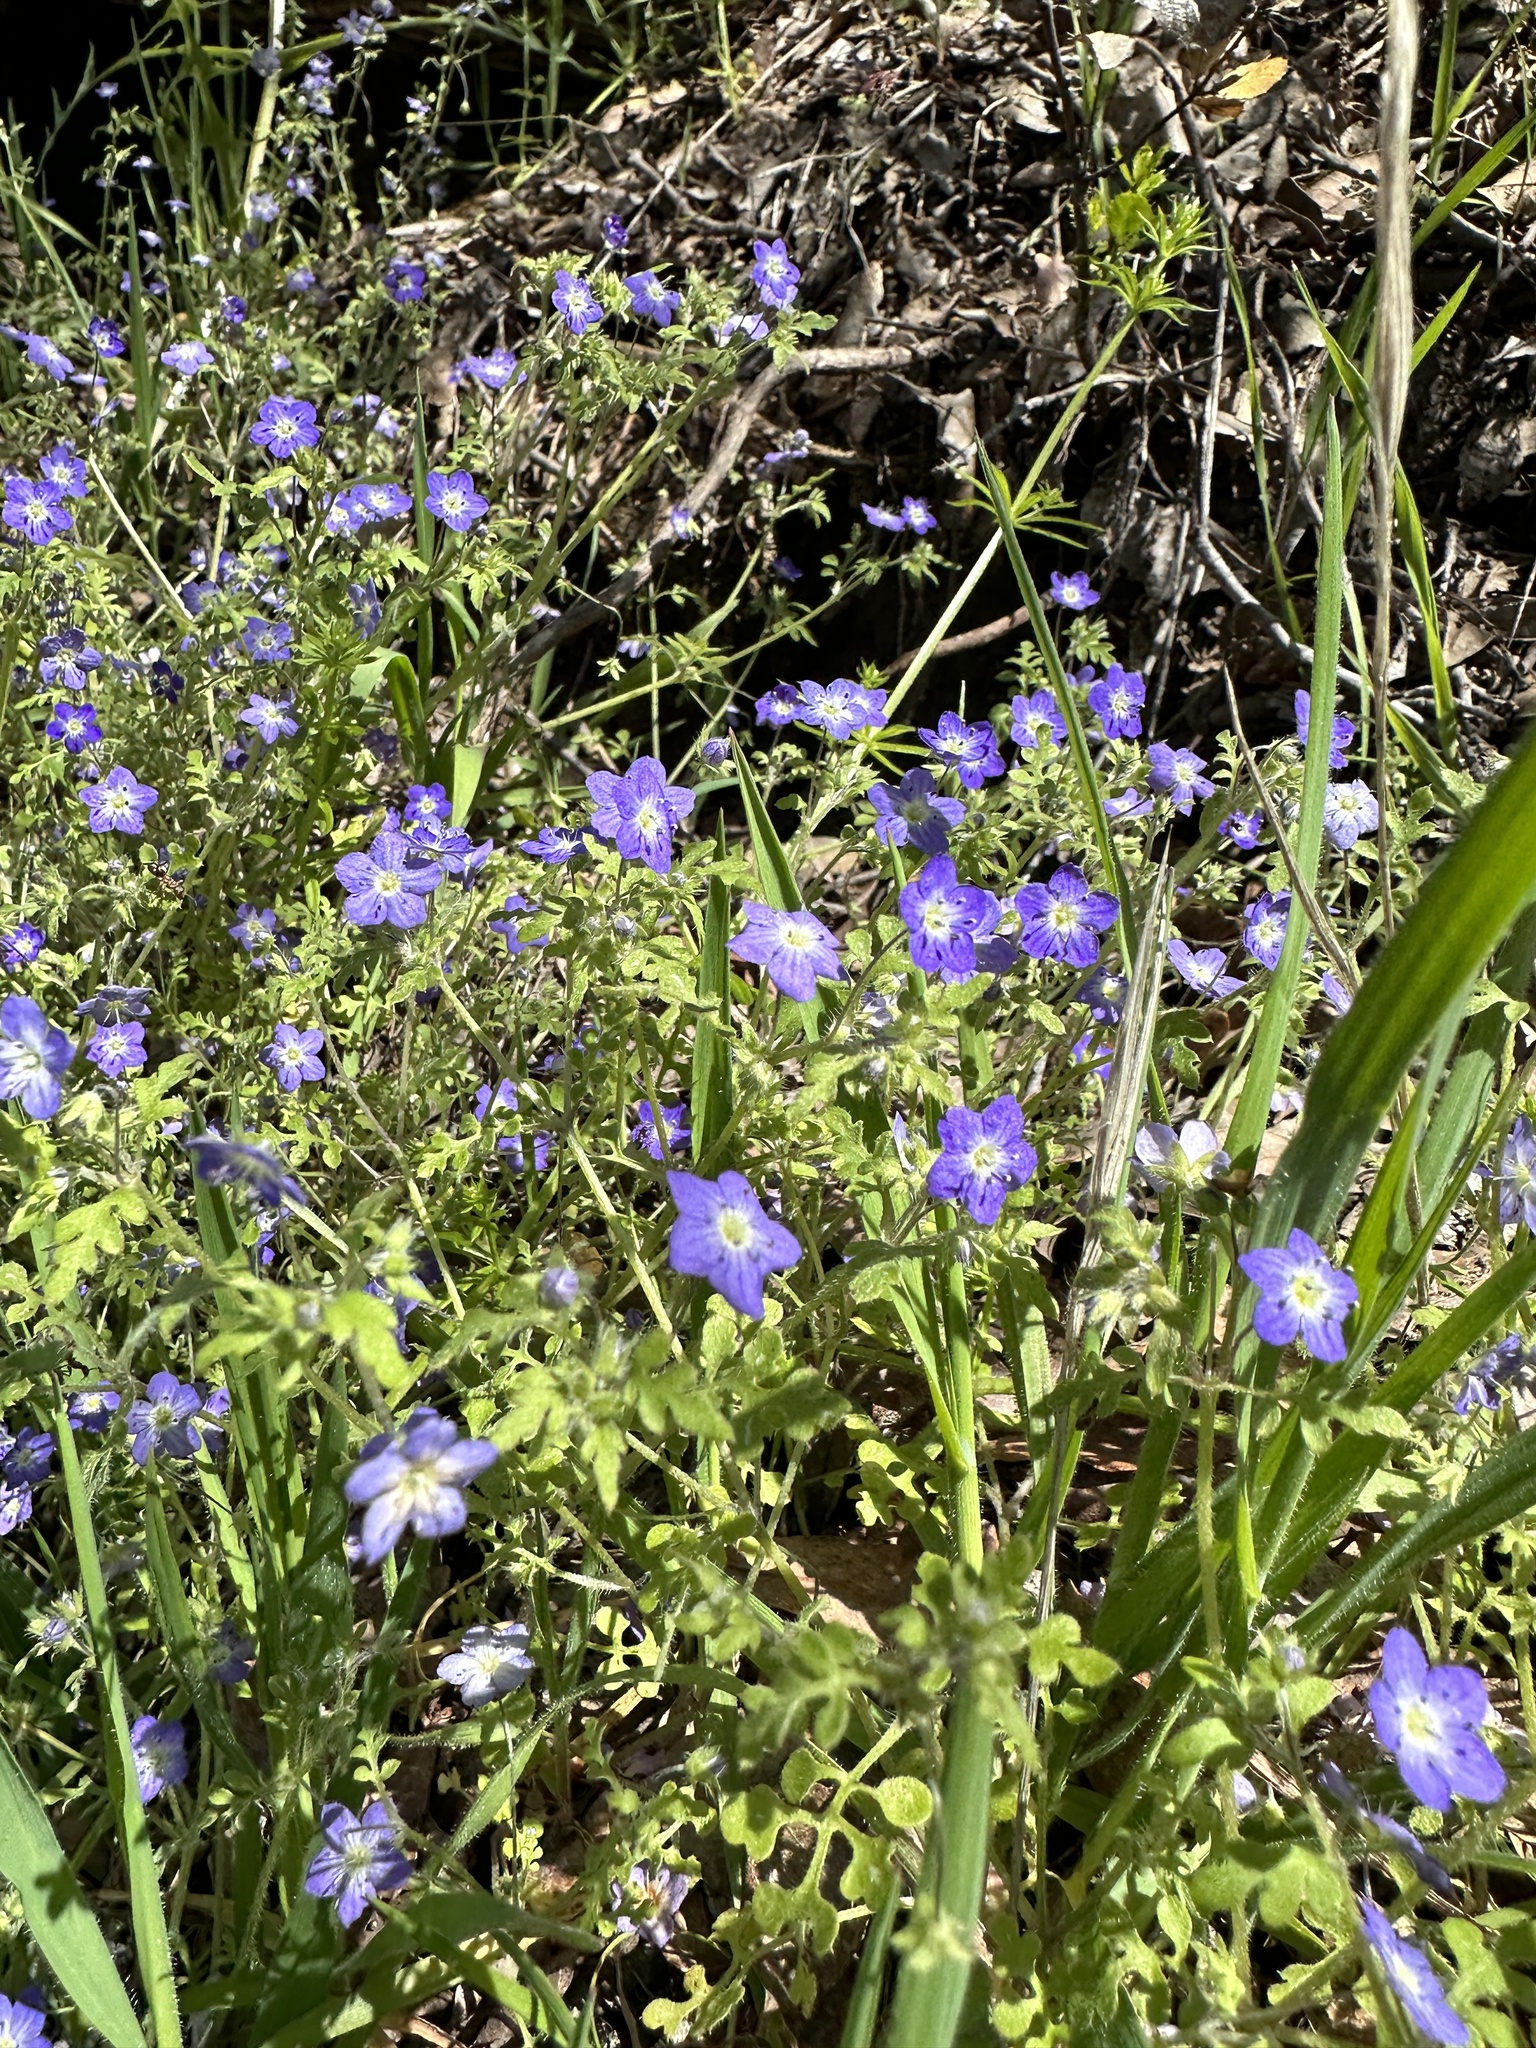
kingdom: Plantae
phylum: Tracheophyta
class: Magnoliopsida
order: Boraginales
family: Hydrophyllaceae
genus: Nemophila
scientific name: Nemophila pulchella
